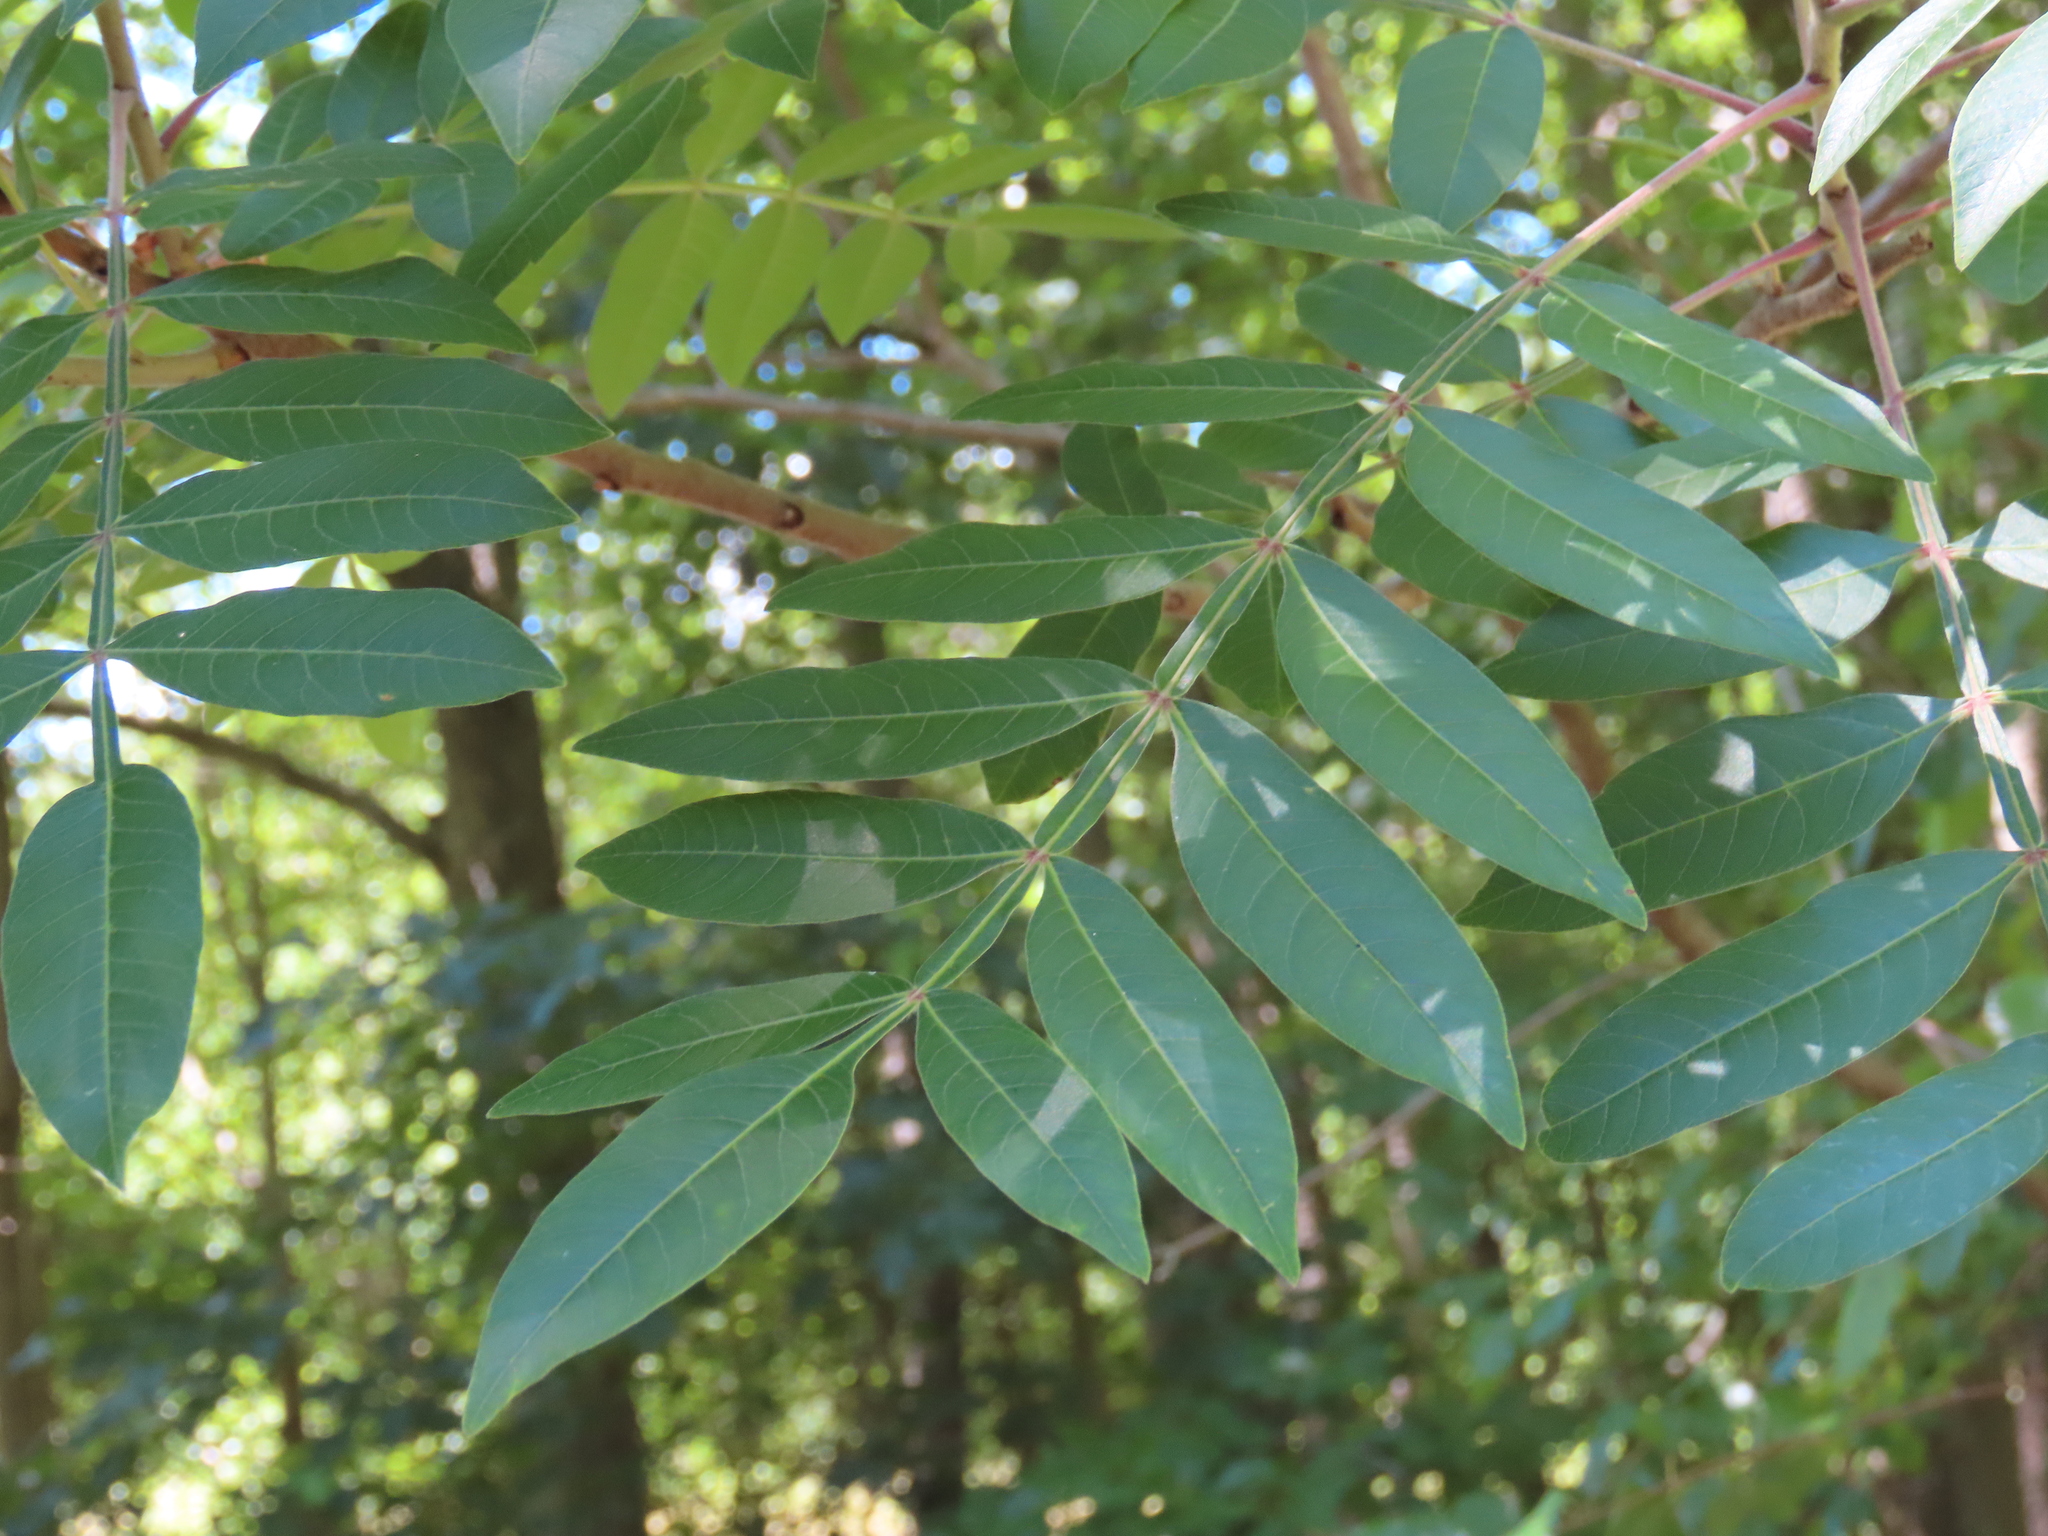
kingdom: Plantae
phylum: Tracheophyta
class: Magnoliopsida
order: Sapindales
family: Anacardiaceae
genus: Rhus
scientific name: Rhus copallina
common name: Shining sumac
